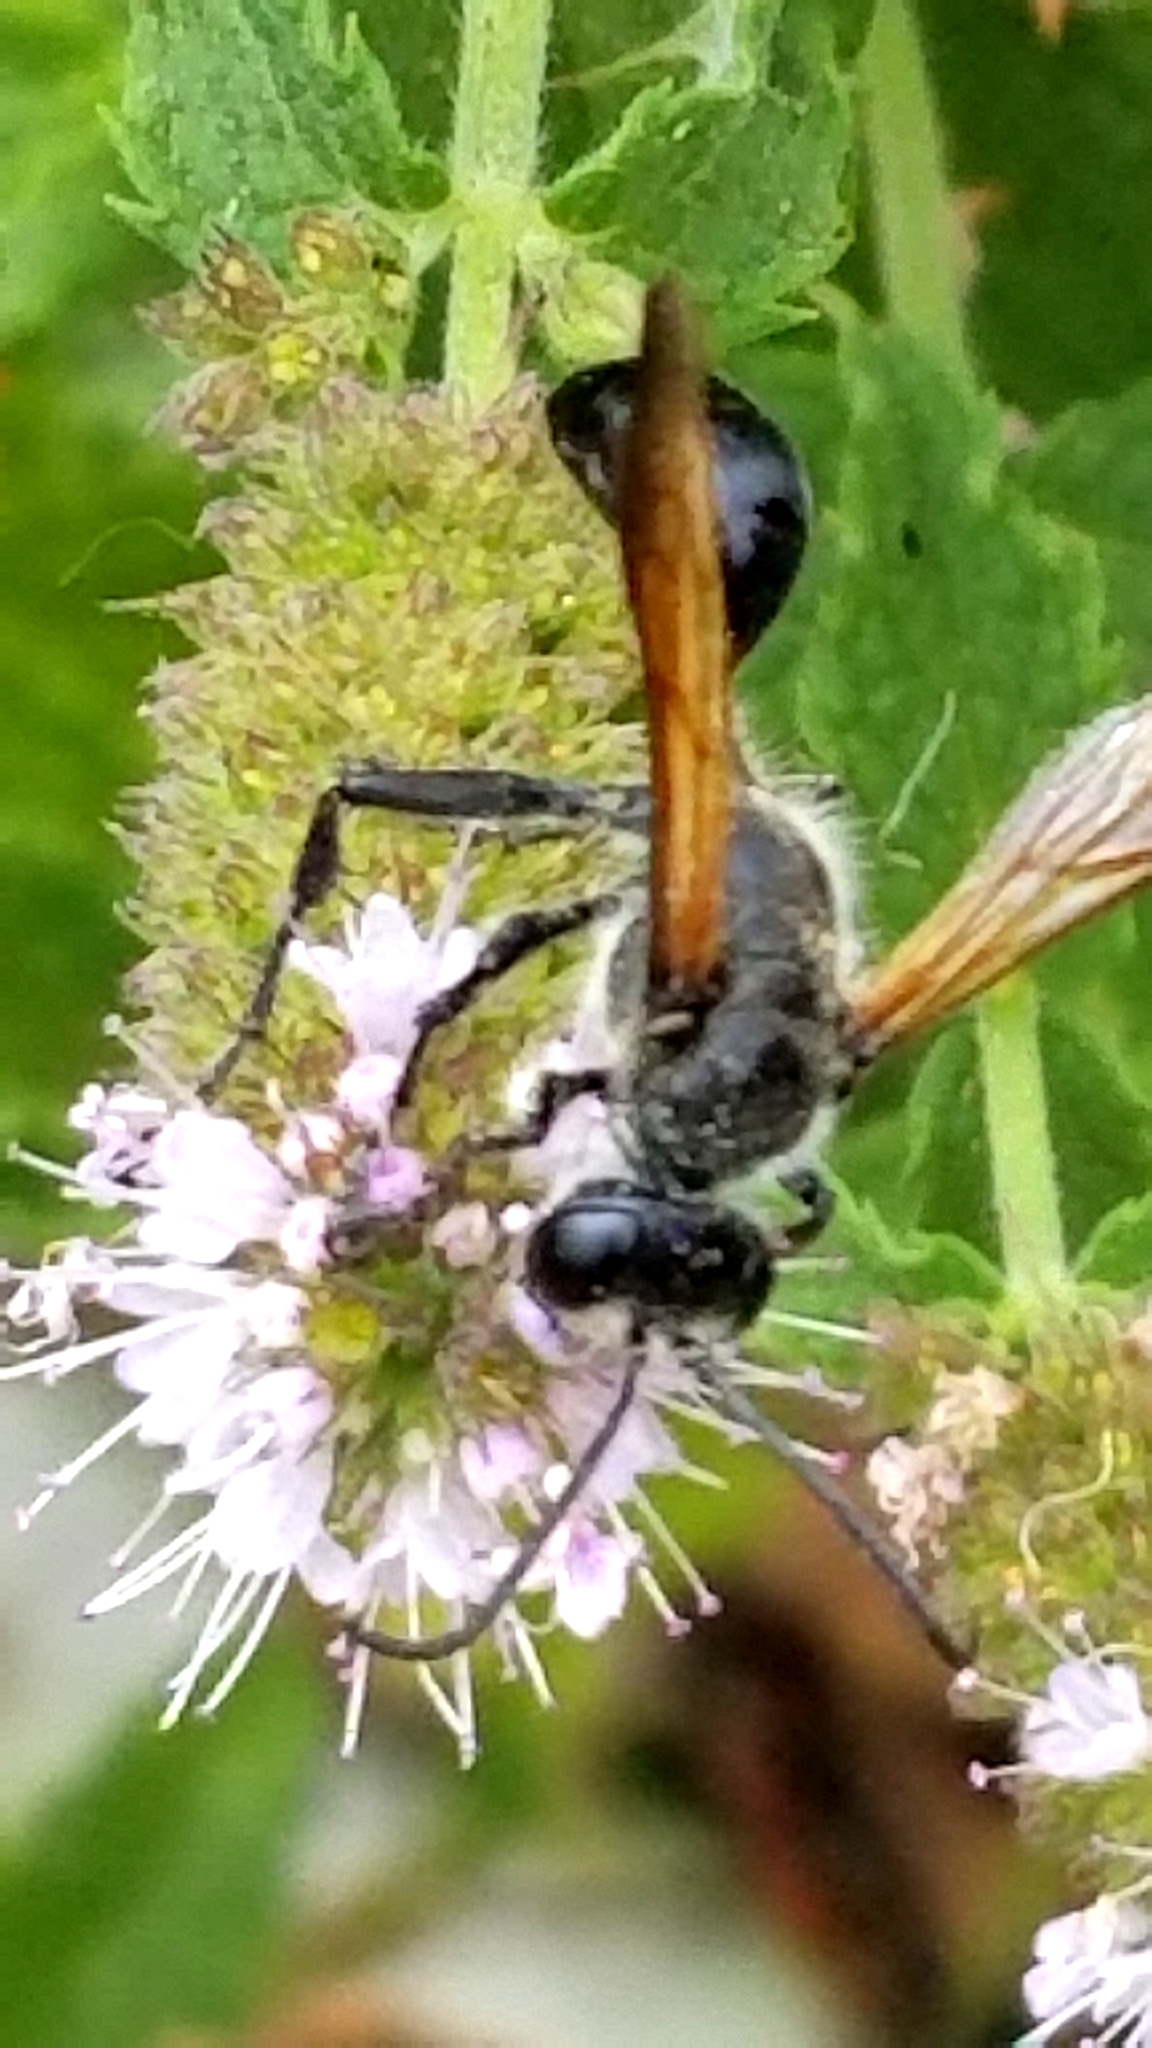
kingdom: Animalia
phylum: Arthropoda
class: Insecta
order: Hymenoptera
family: Sphecidae
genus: Isodontia
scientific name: Isodontia mexicana
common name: Mud dauber
